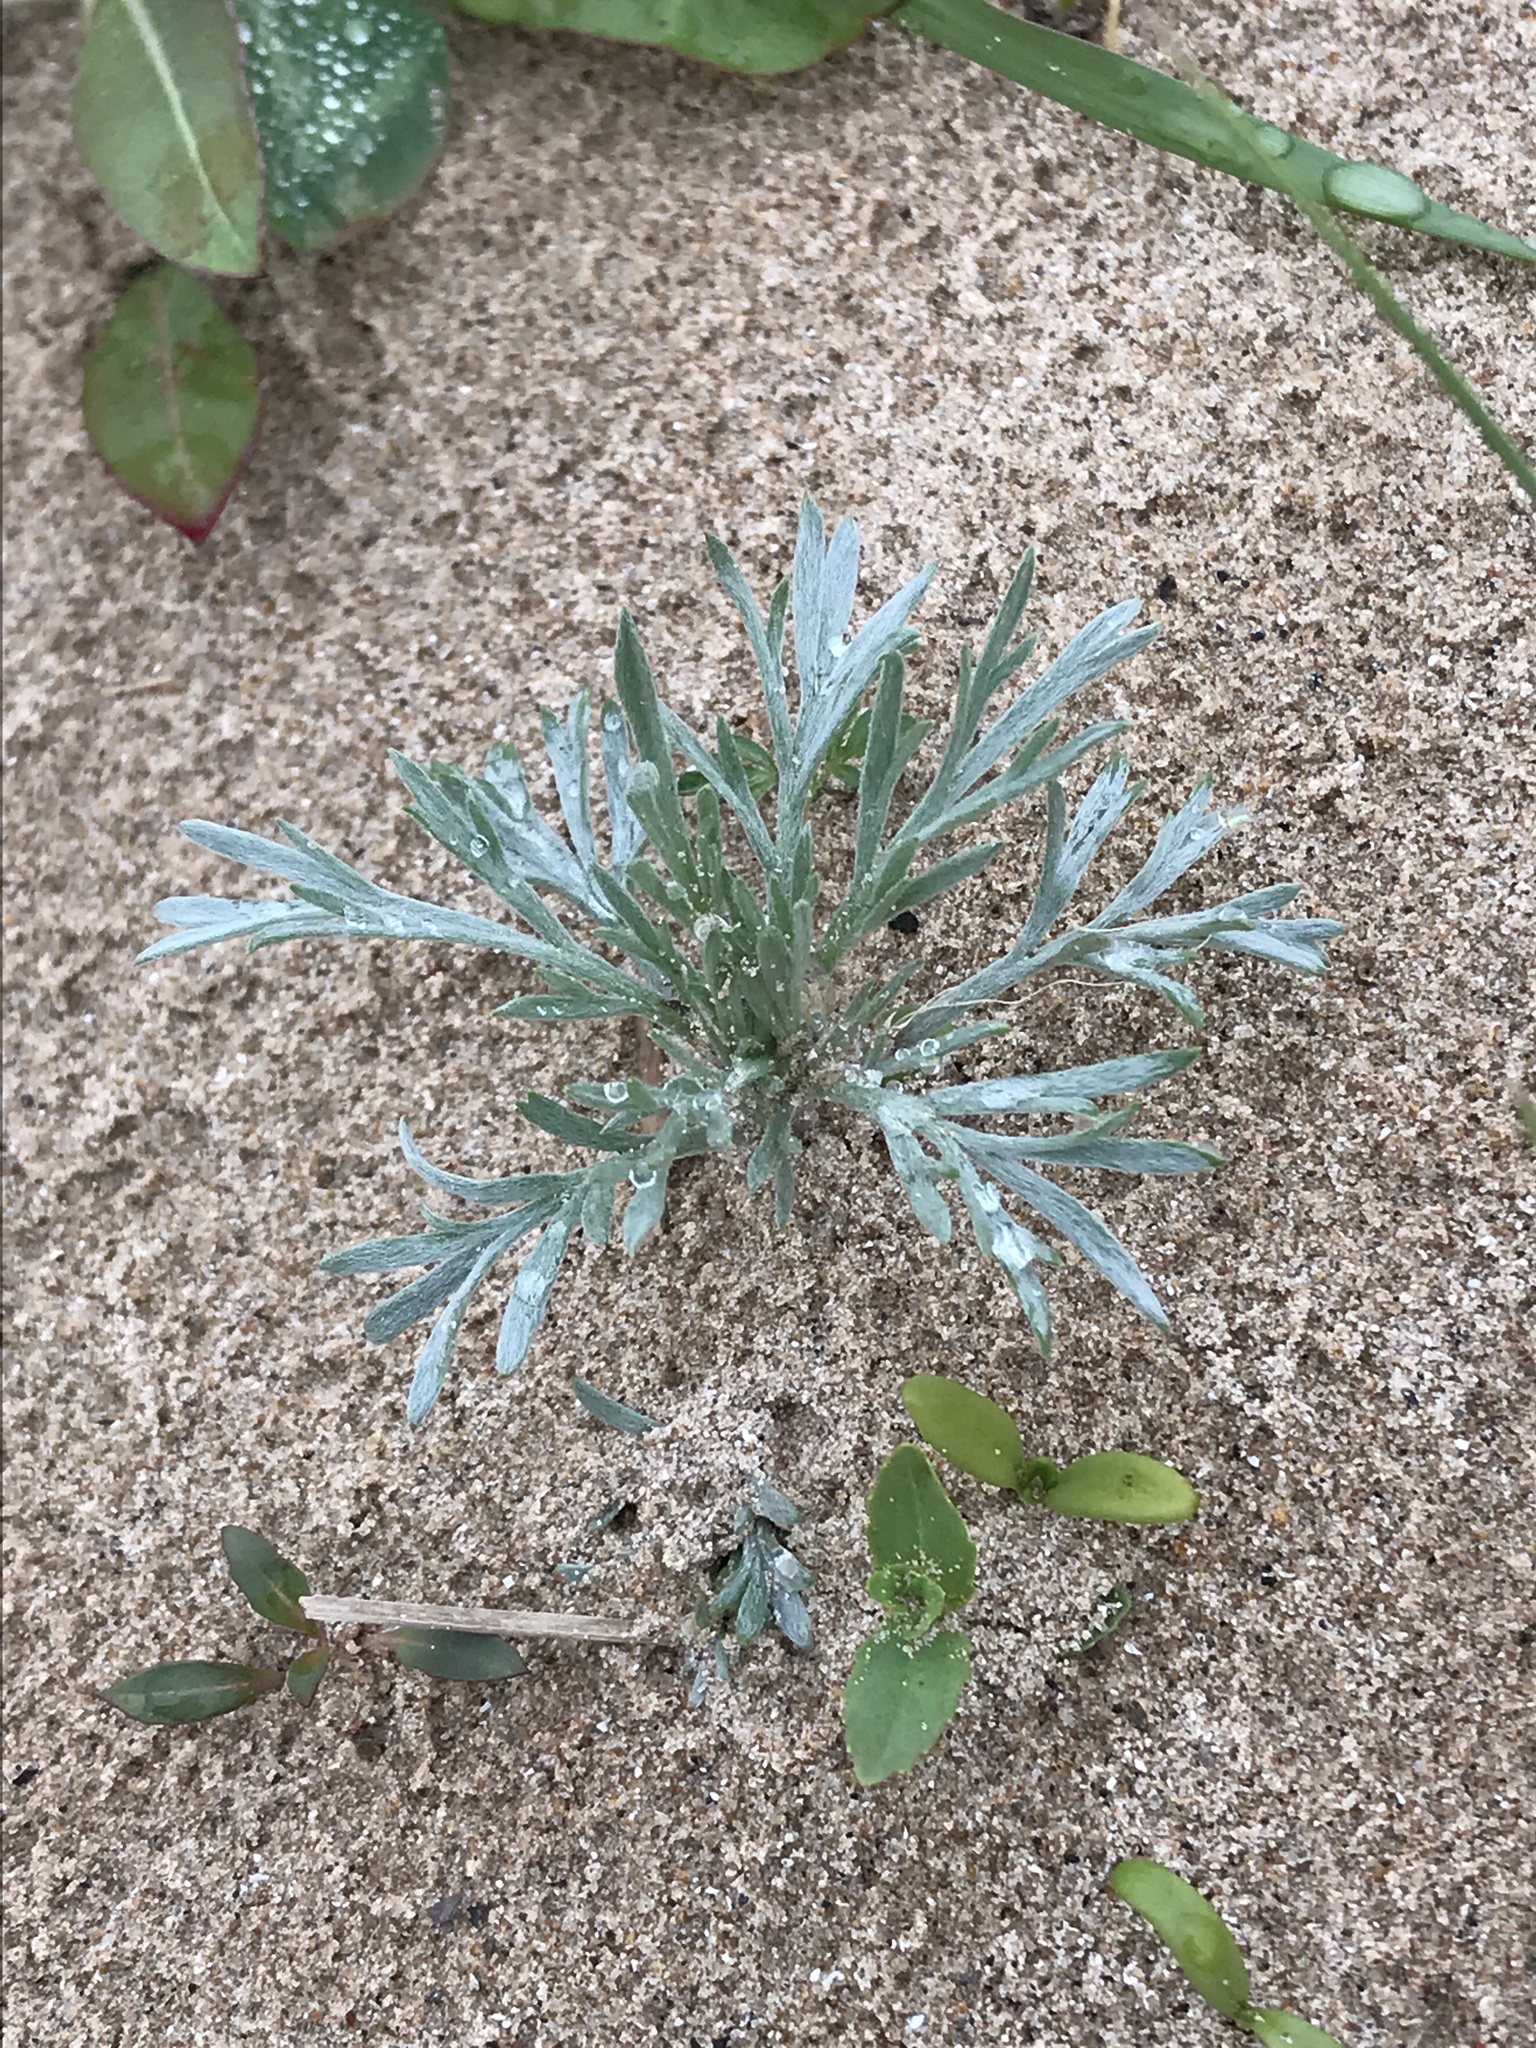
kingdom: Plantae
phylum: Tracheophyta
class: Magnoliopsida
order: Asterales
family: Asteraceae
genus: Artemisia
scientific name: Artemisia campestris
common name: Field wormwood
